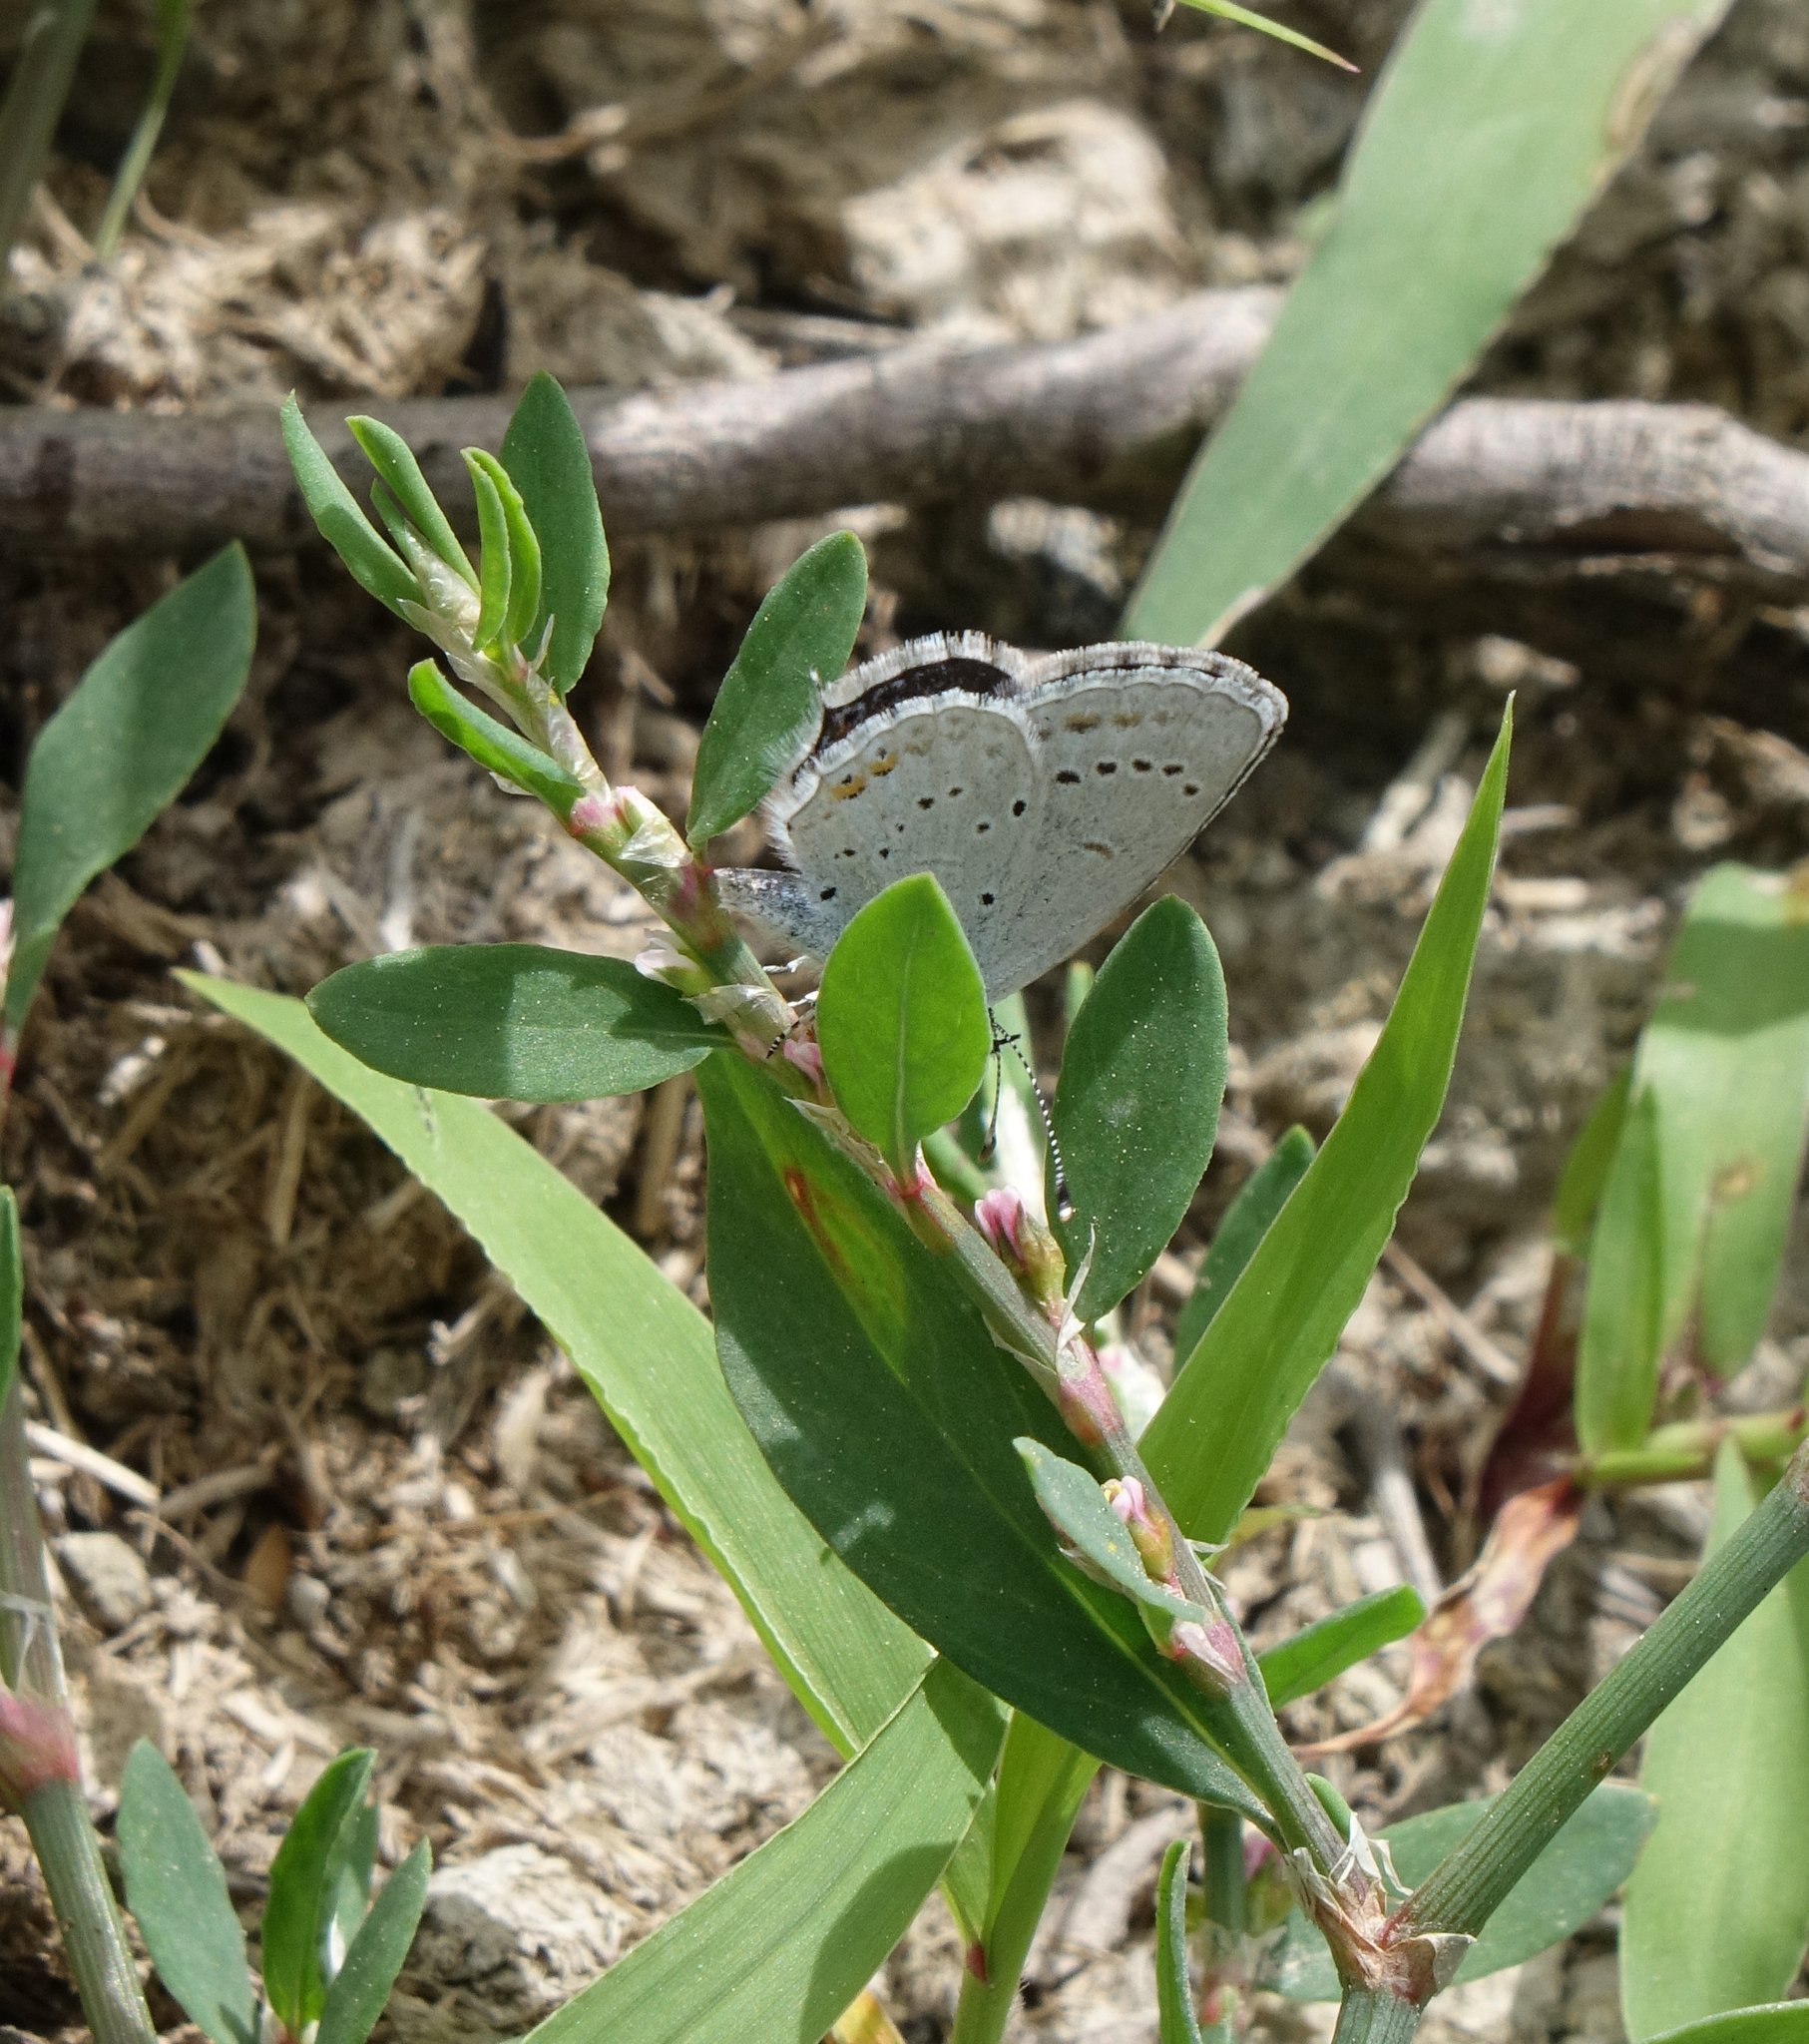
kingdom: Animalia
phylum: Arthropoda
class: Insecta
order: Lepidoptera
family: Lycaenidae
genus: Elkalyce
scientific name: Elkalyce argiades
